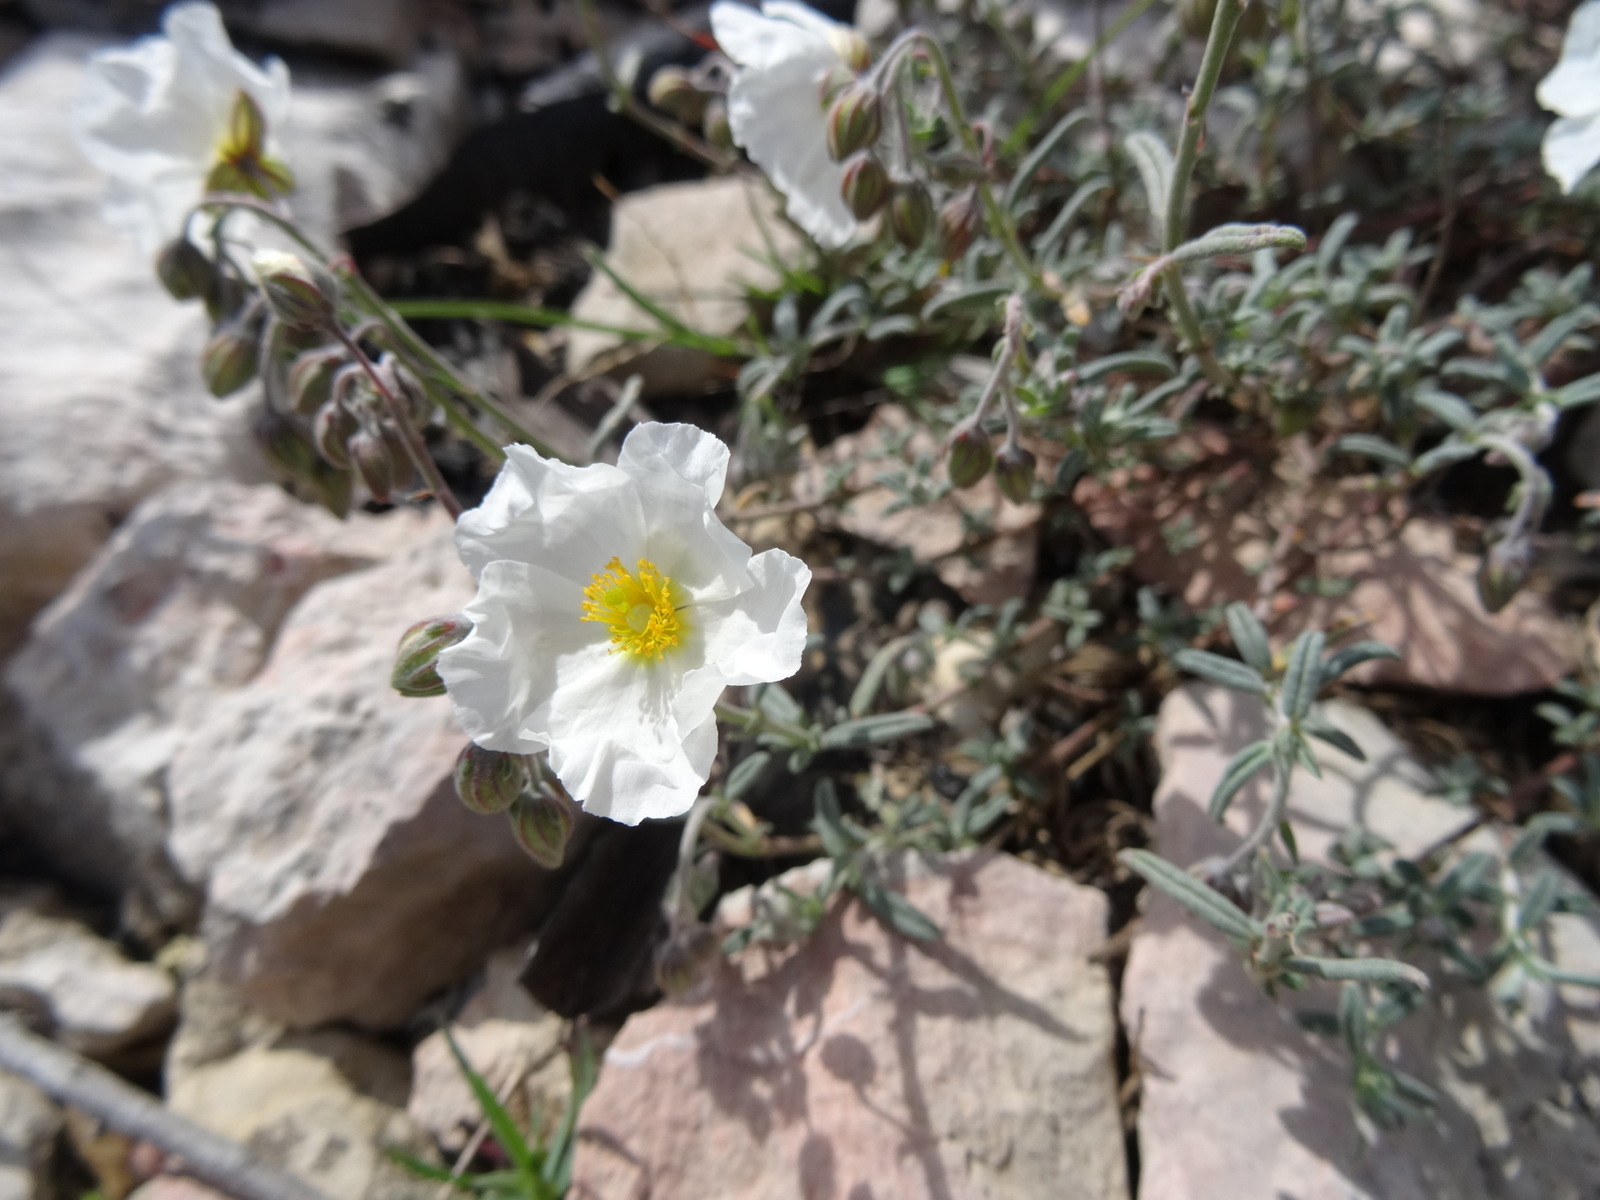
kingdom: Plantae
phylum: Tracheophyta
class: Magnoliopsida
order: Malvales
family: Cistaceae
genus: Helianthemum
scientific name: Helianthemum apenninum
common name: White rock-rose
